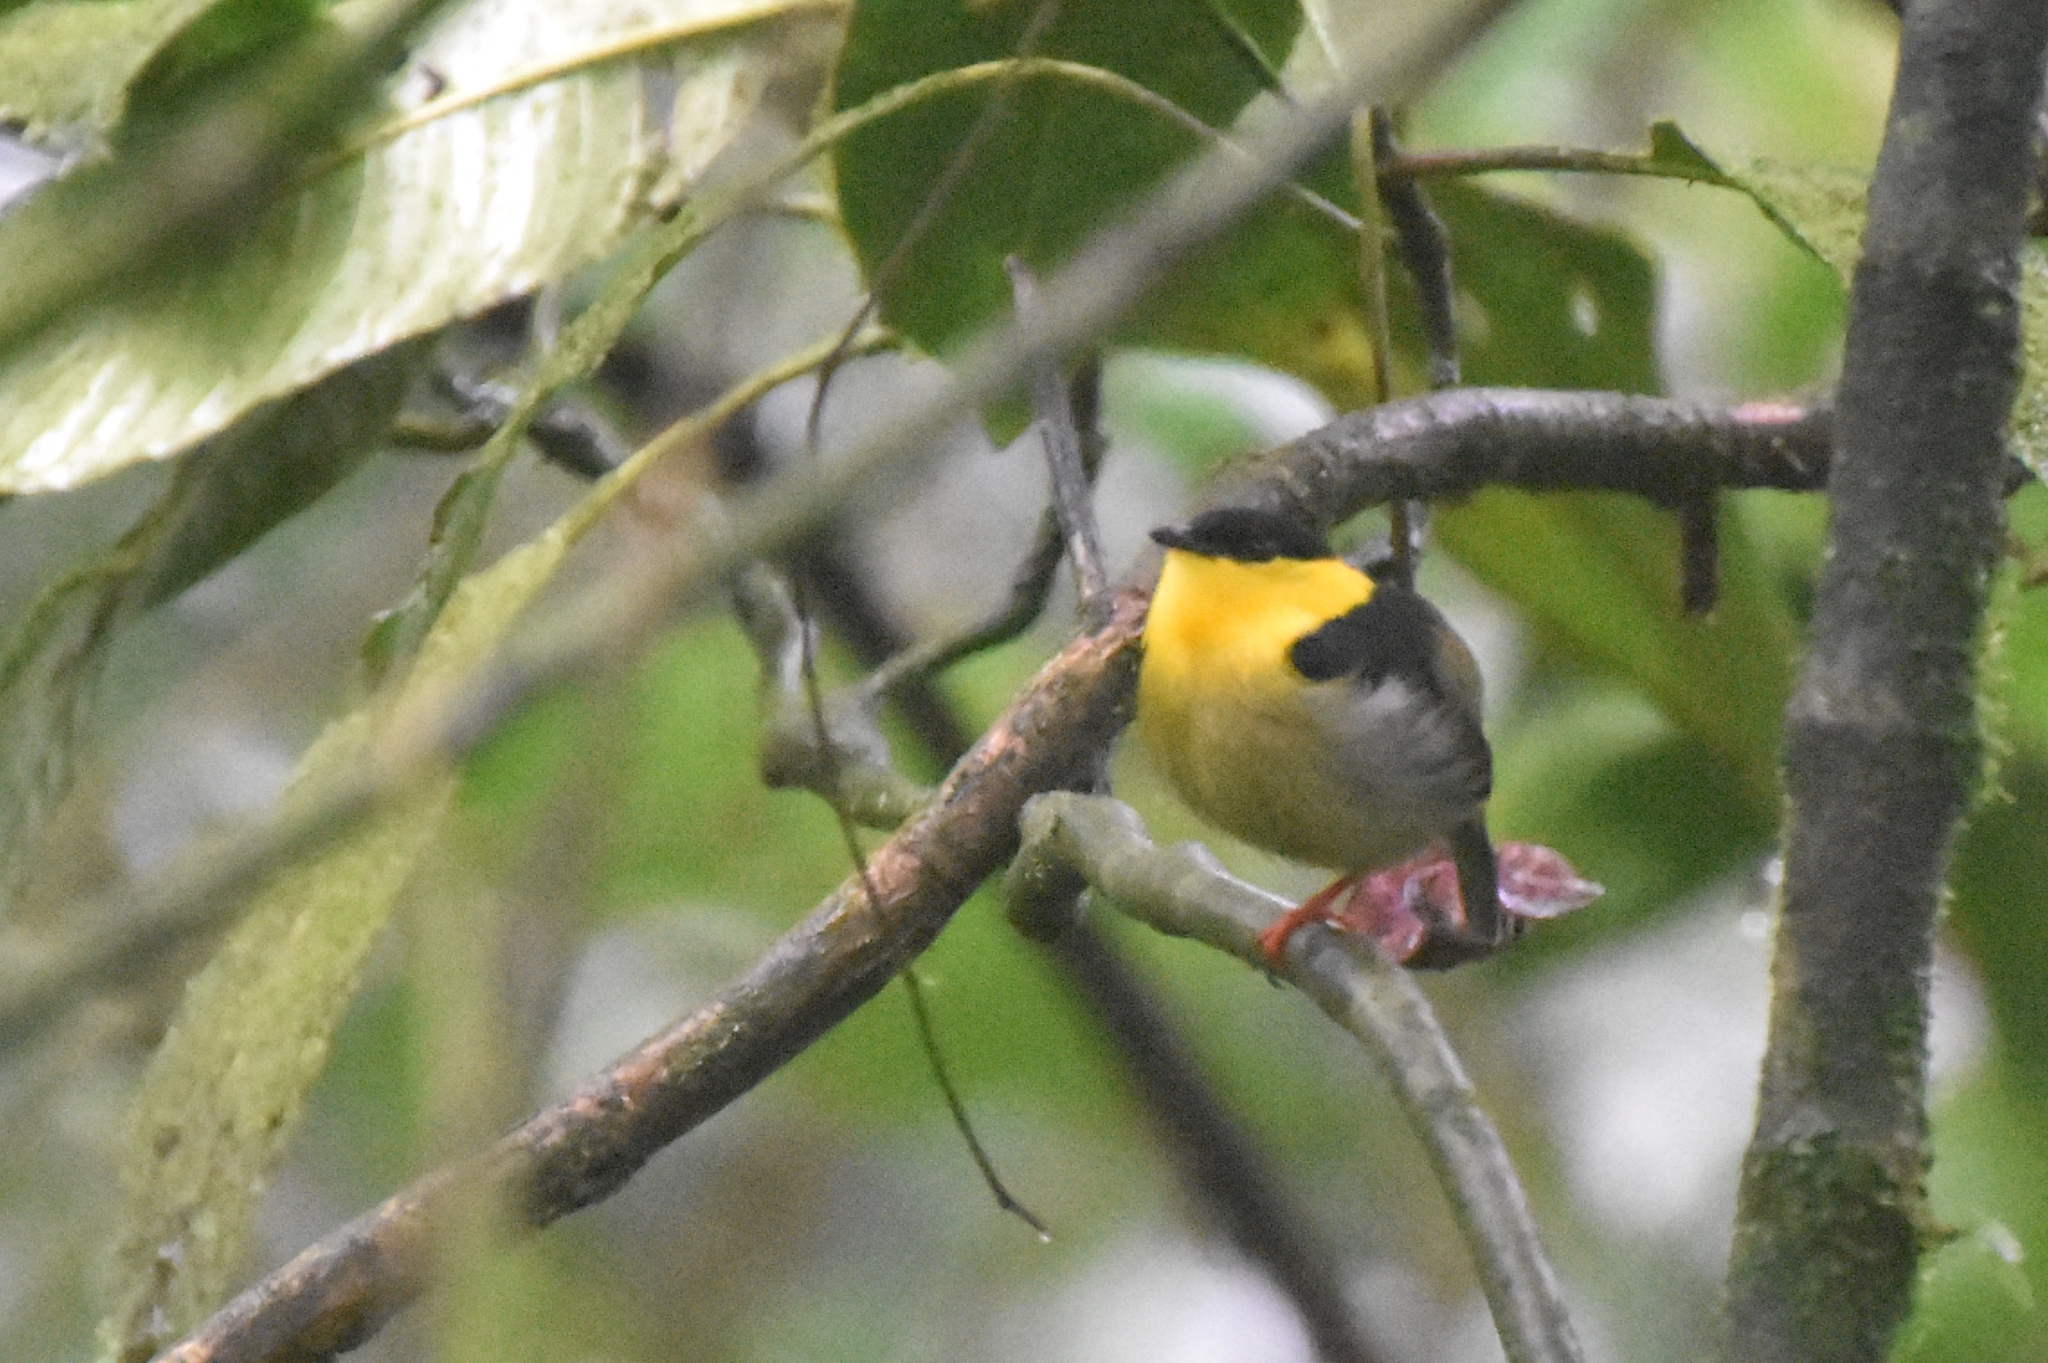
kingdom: Animalia
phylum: Chordata
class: Aves
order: Passeriformes
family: Pipridae
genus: Manacus
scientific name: Manacus vitellinus
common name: Golden-collared manakin
